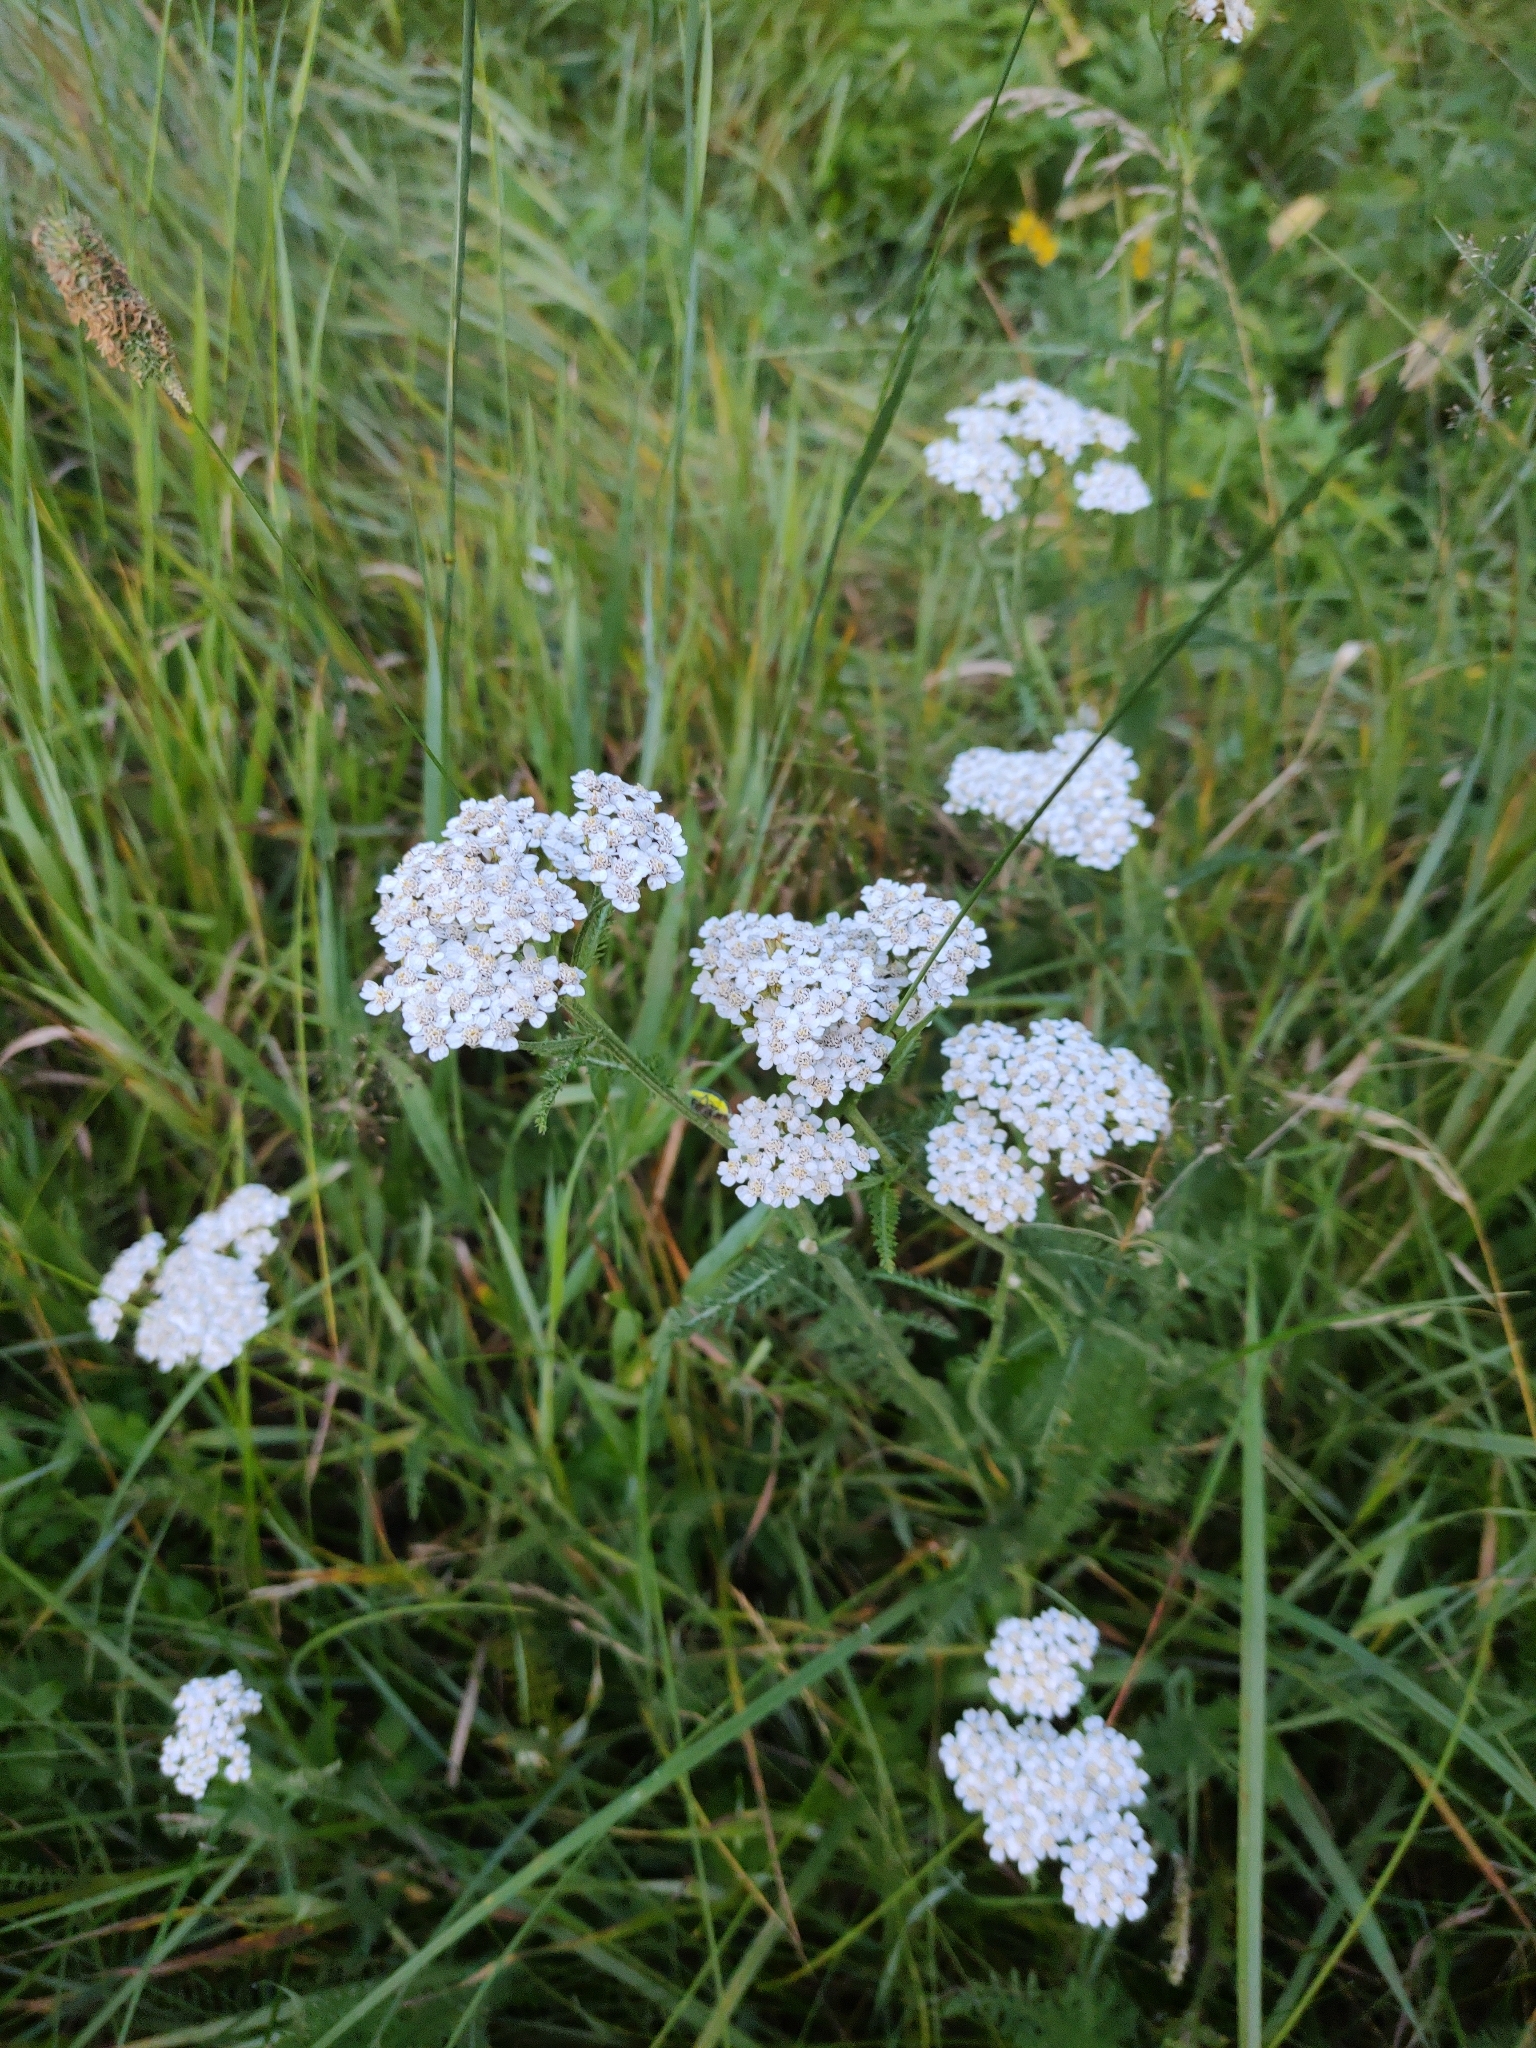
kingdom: Plantae
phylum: Tracheophyta
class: Magnoliopsida
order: Asterales
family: Asteraceae
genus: Achillea
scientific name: Achillea millefolium
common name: Yarrow
